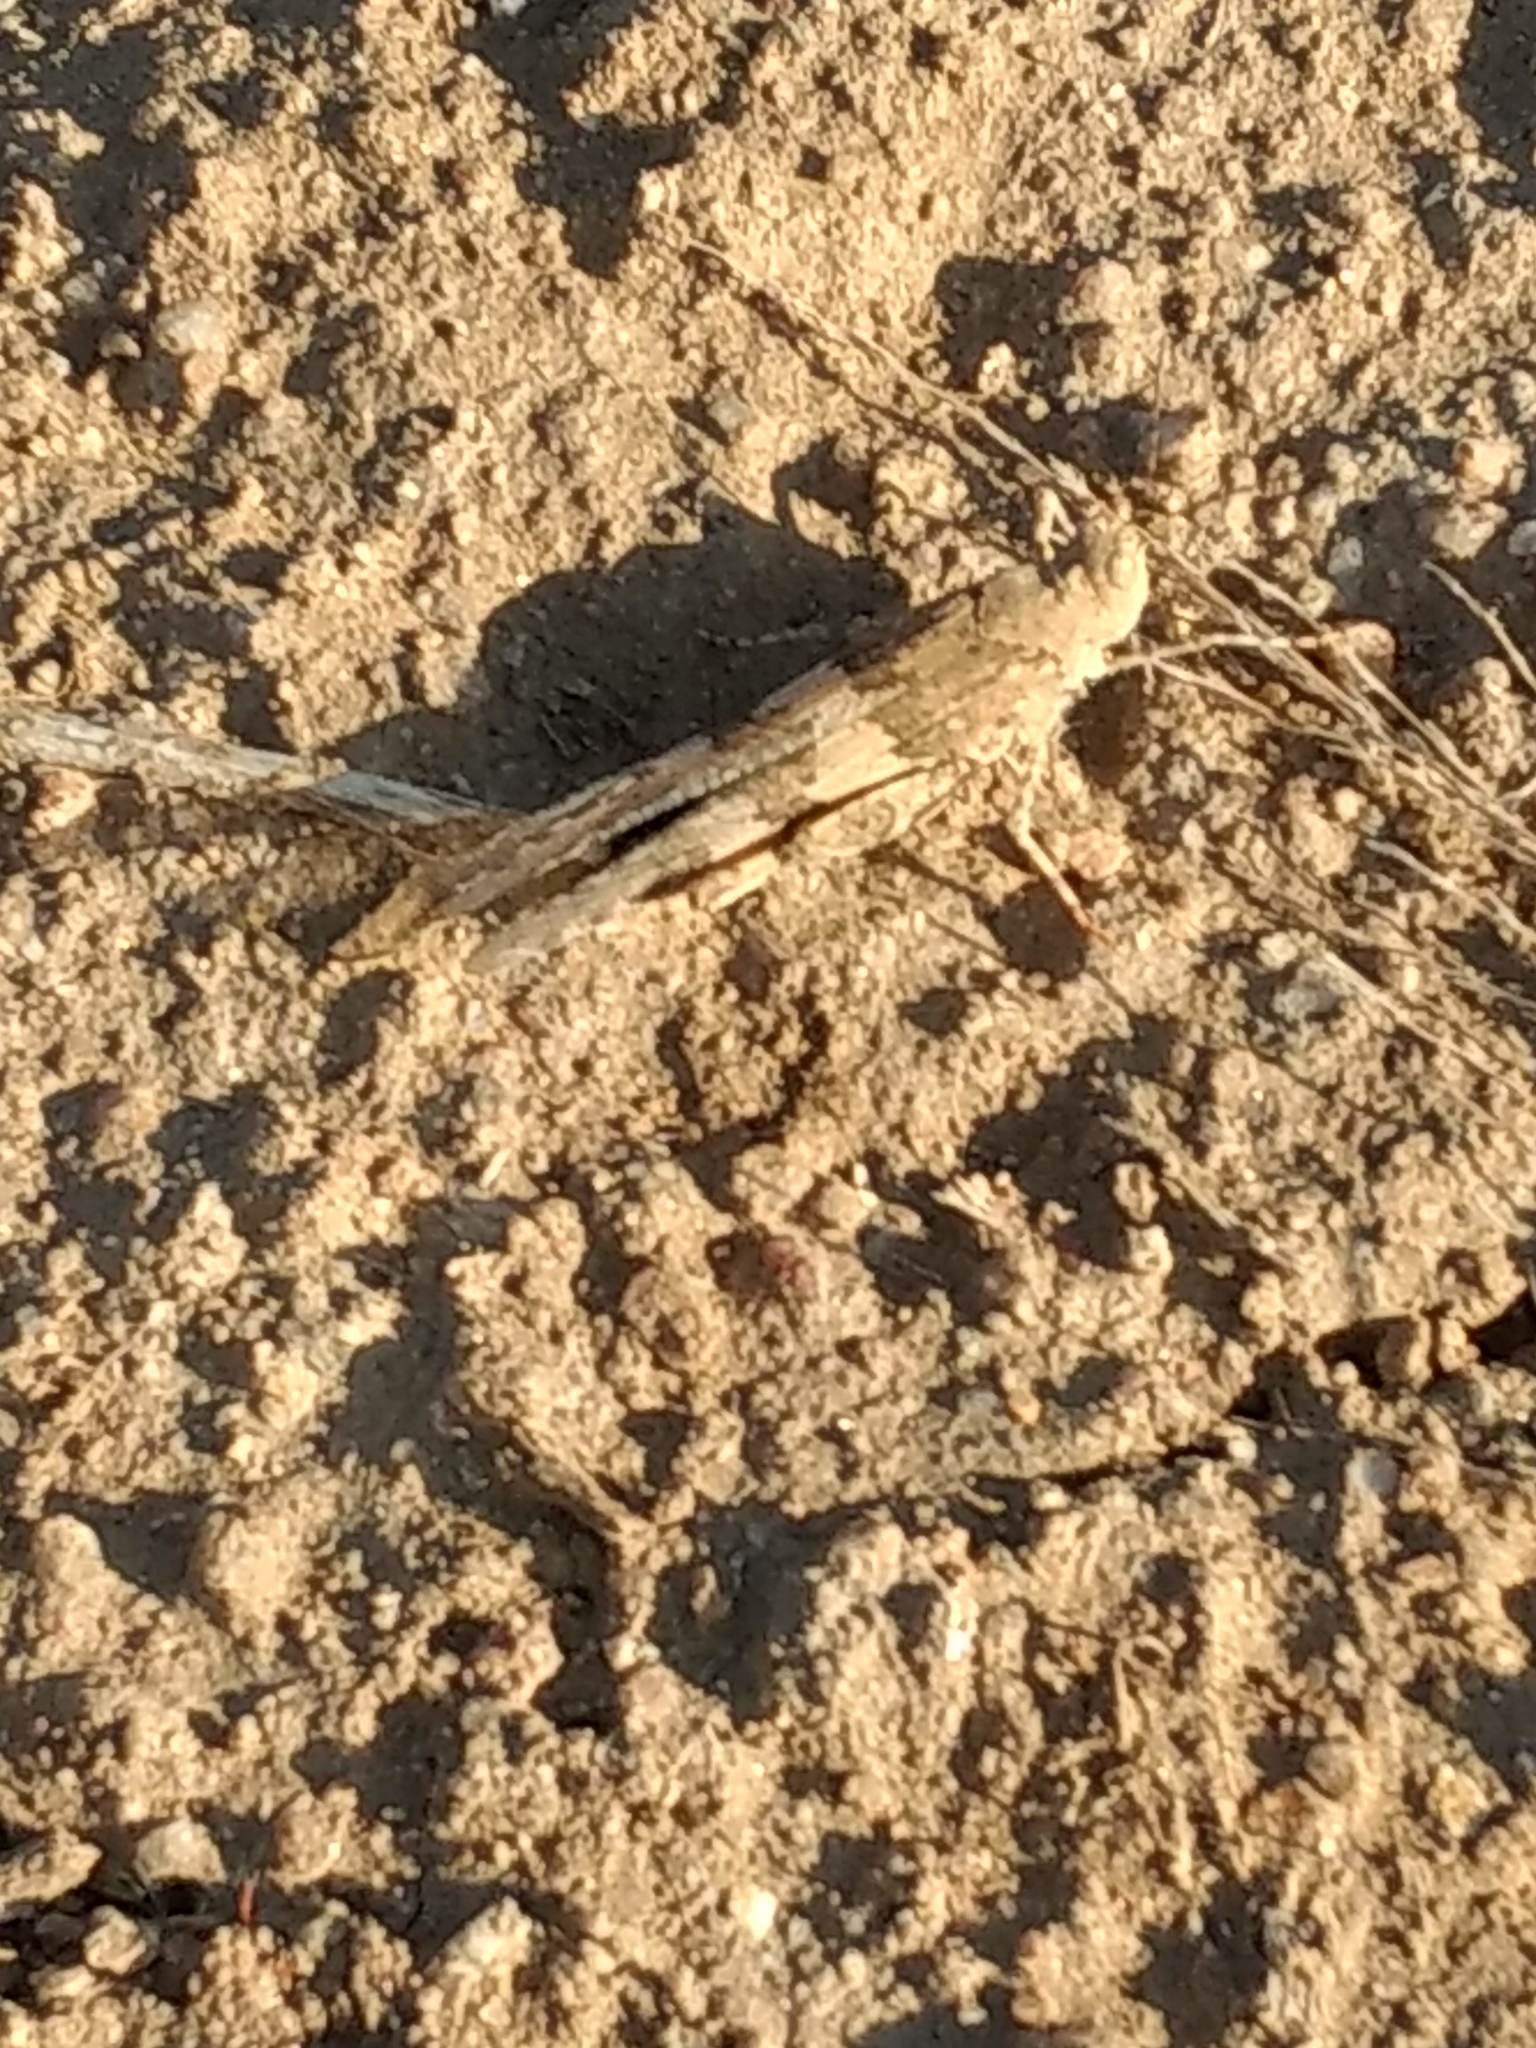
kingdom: Animalia
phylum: Arthropoda
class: Insecta
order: Orthoptera
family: Acrididae
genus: Trimerotropis
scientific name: Trimerotropis pallidipennis
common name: Pallid-winged grasshopper
